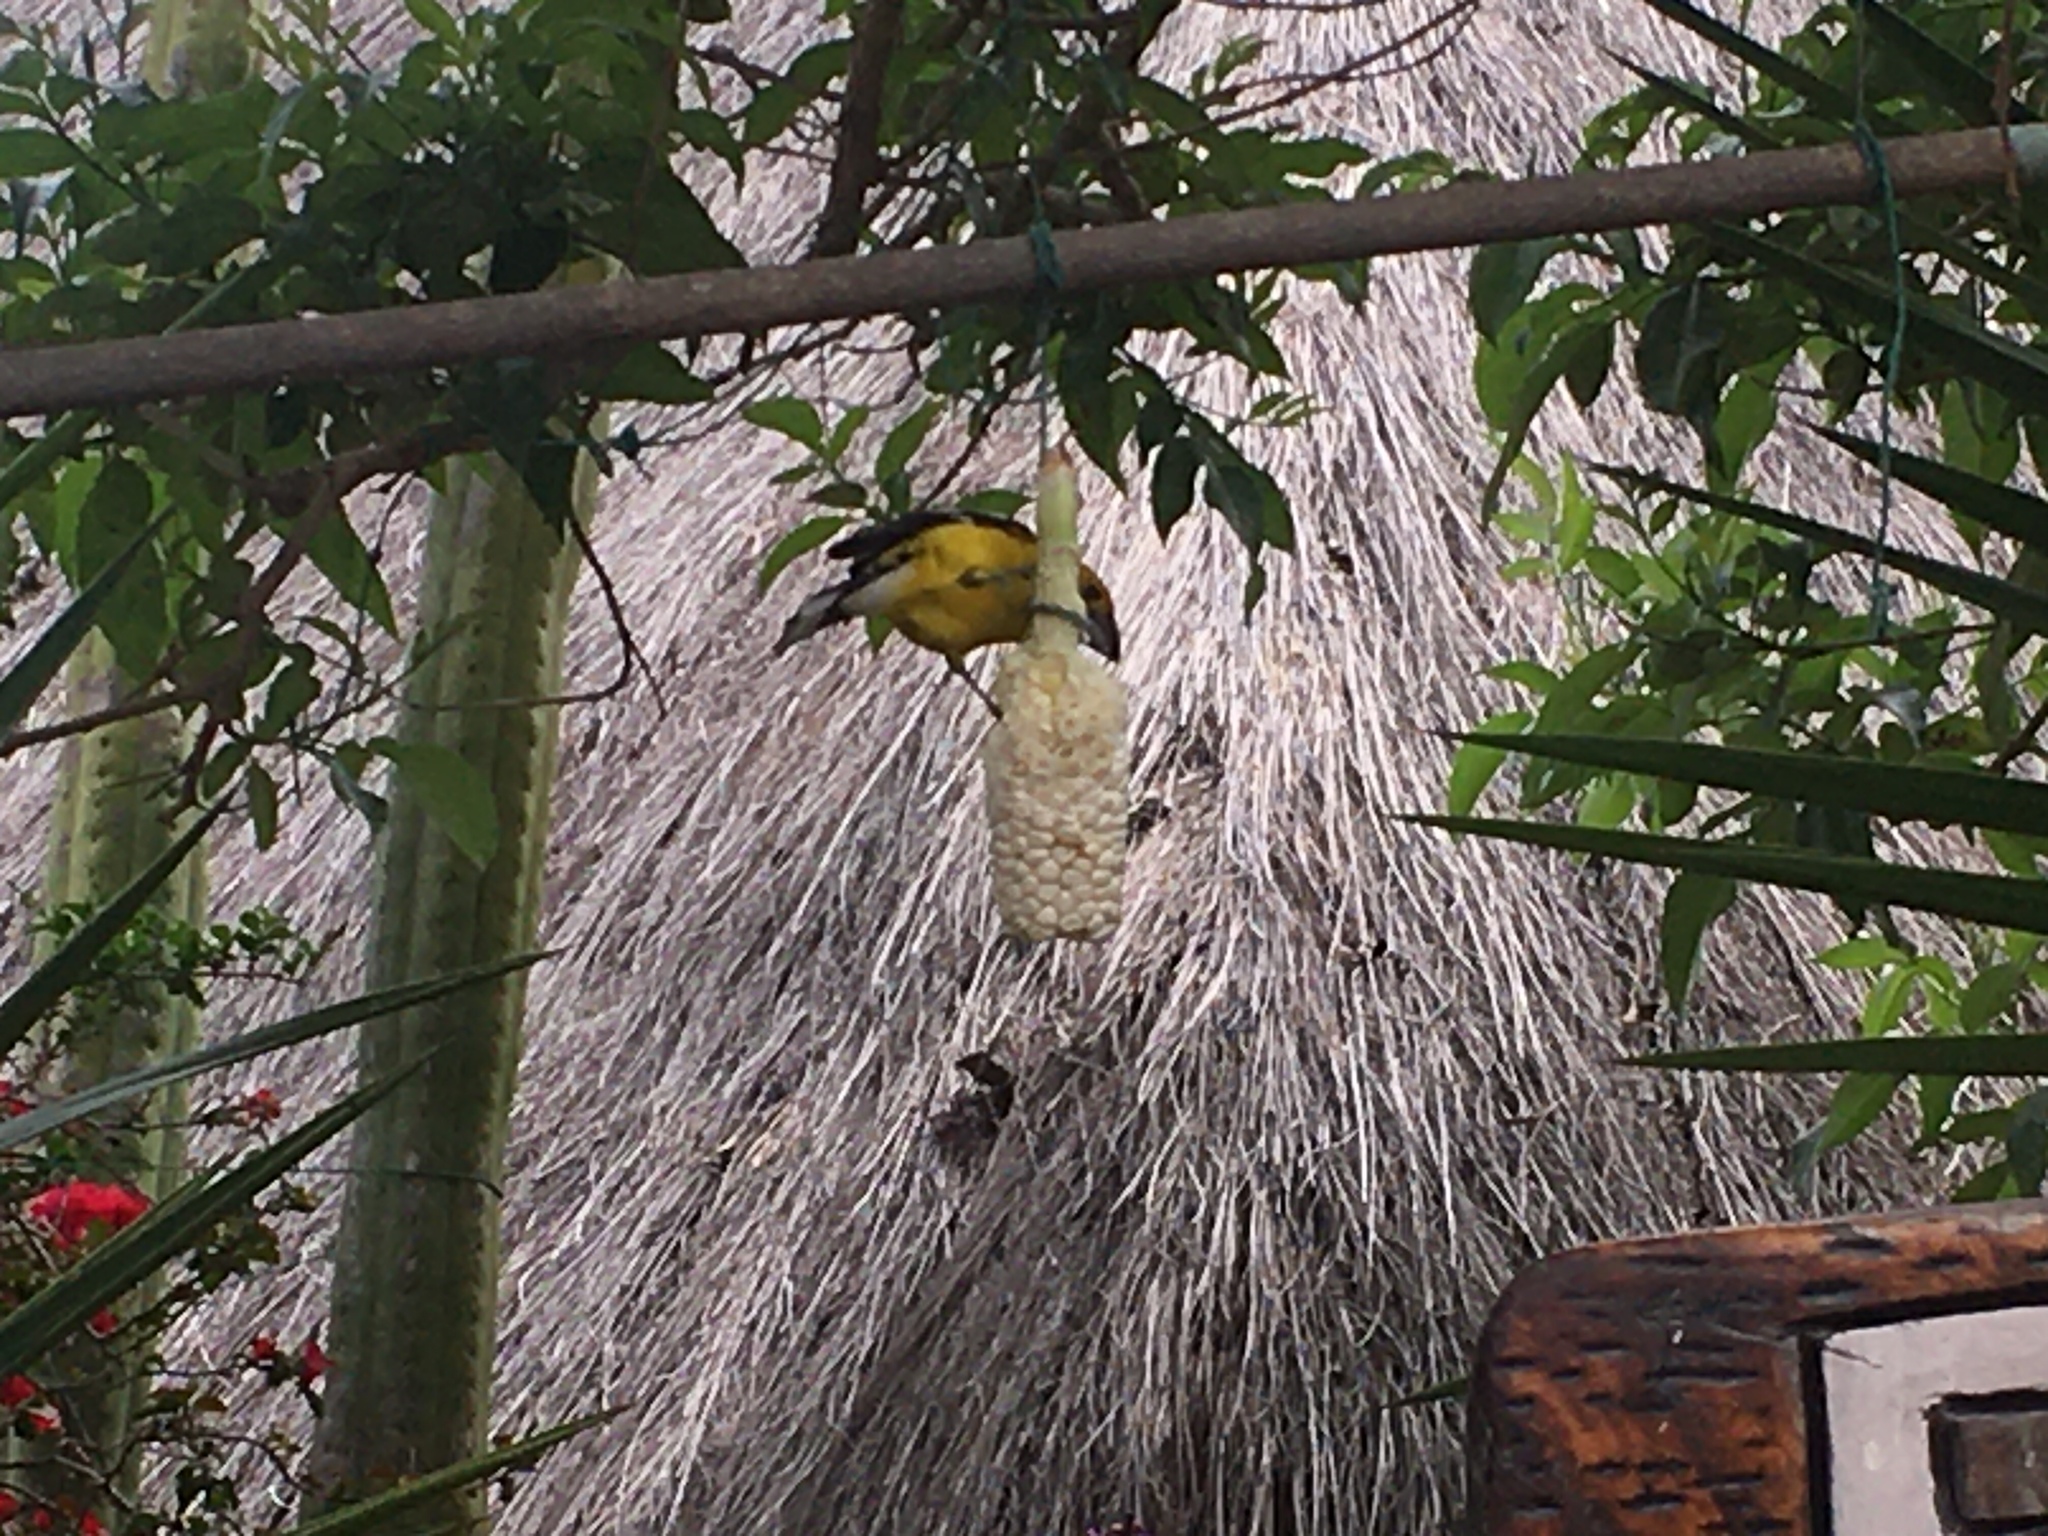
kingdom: Animalia
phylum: Chordata
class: Aves
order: Passeriformes
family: Cardinalidae
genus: Pheucticus
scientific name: Pheucticus chrysogaster
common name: Golden grosbeak
